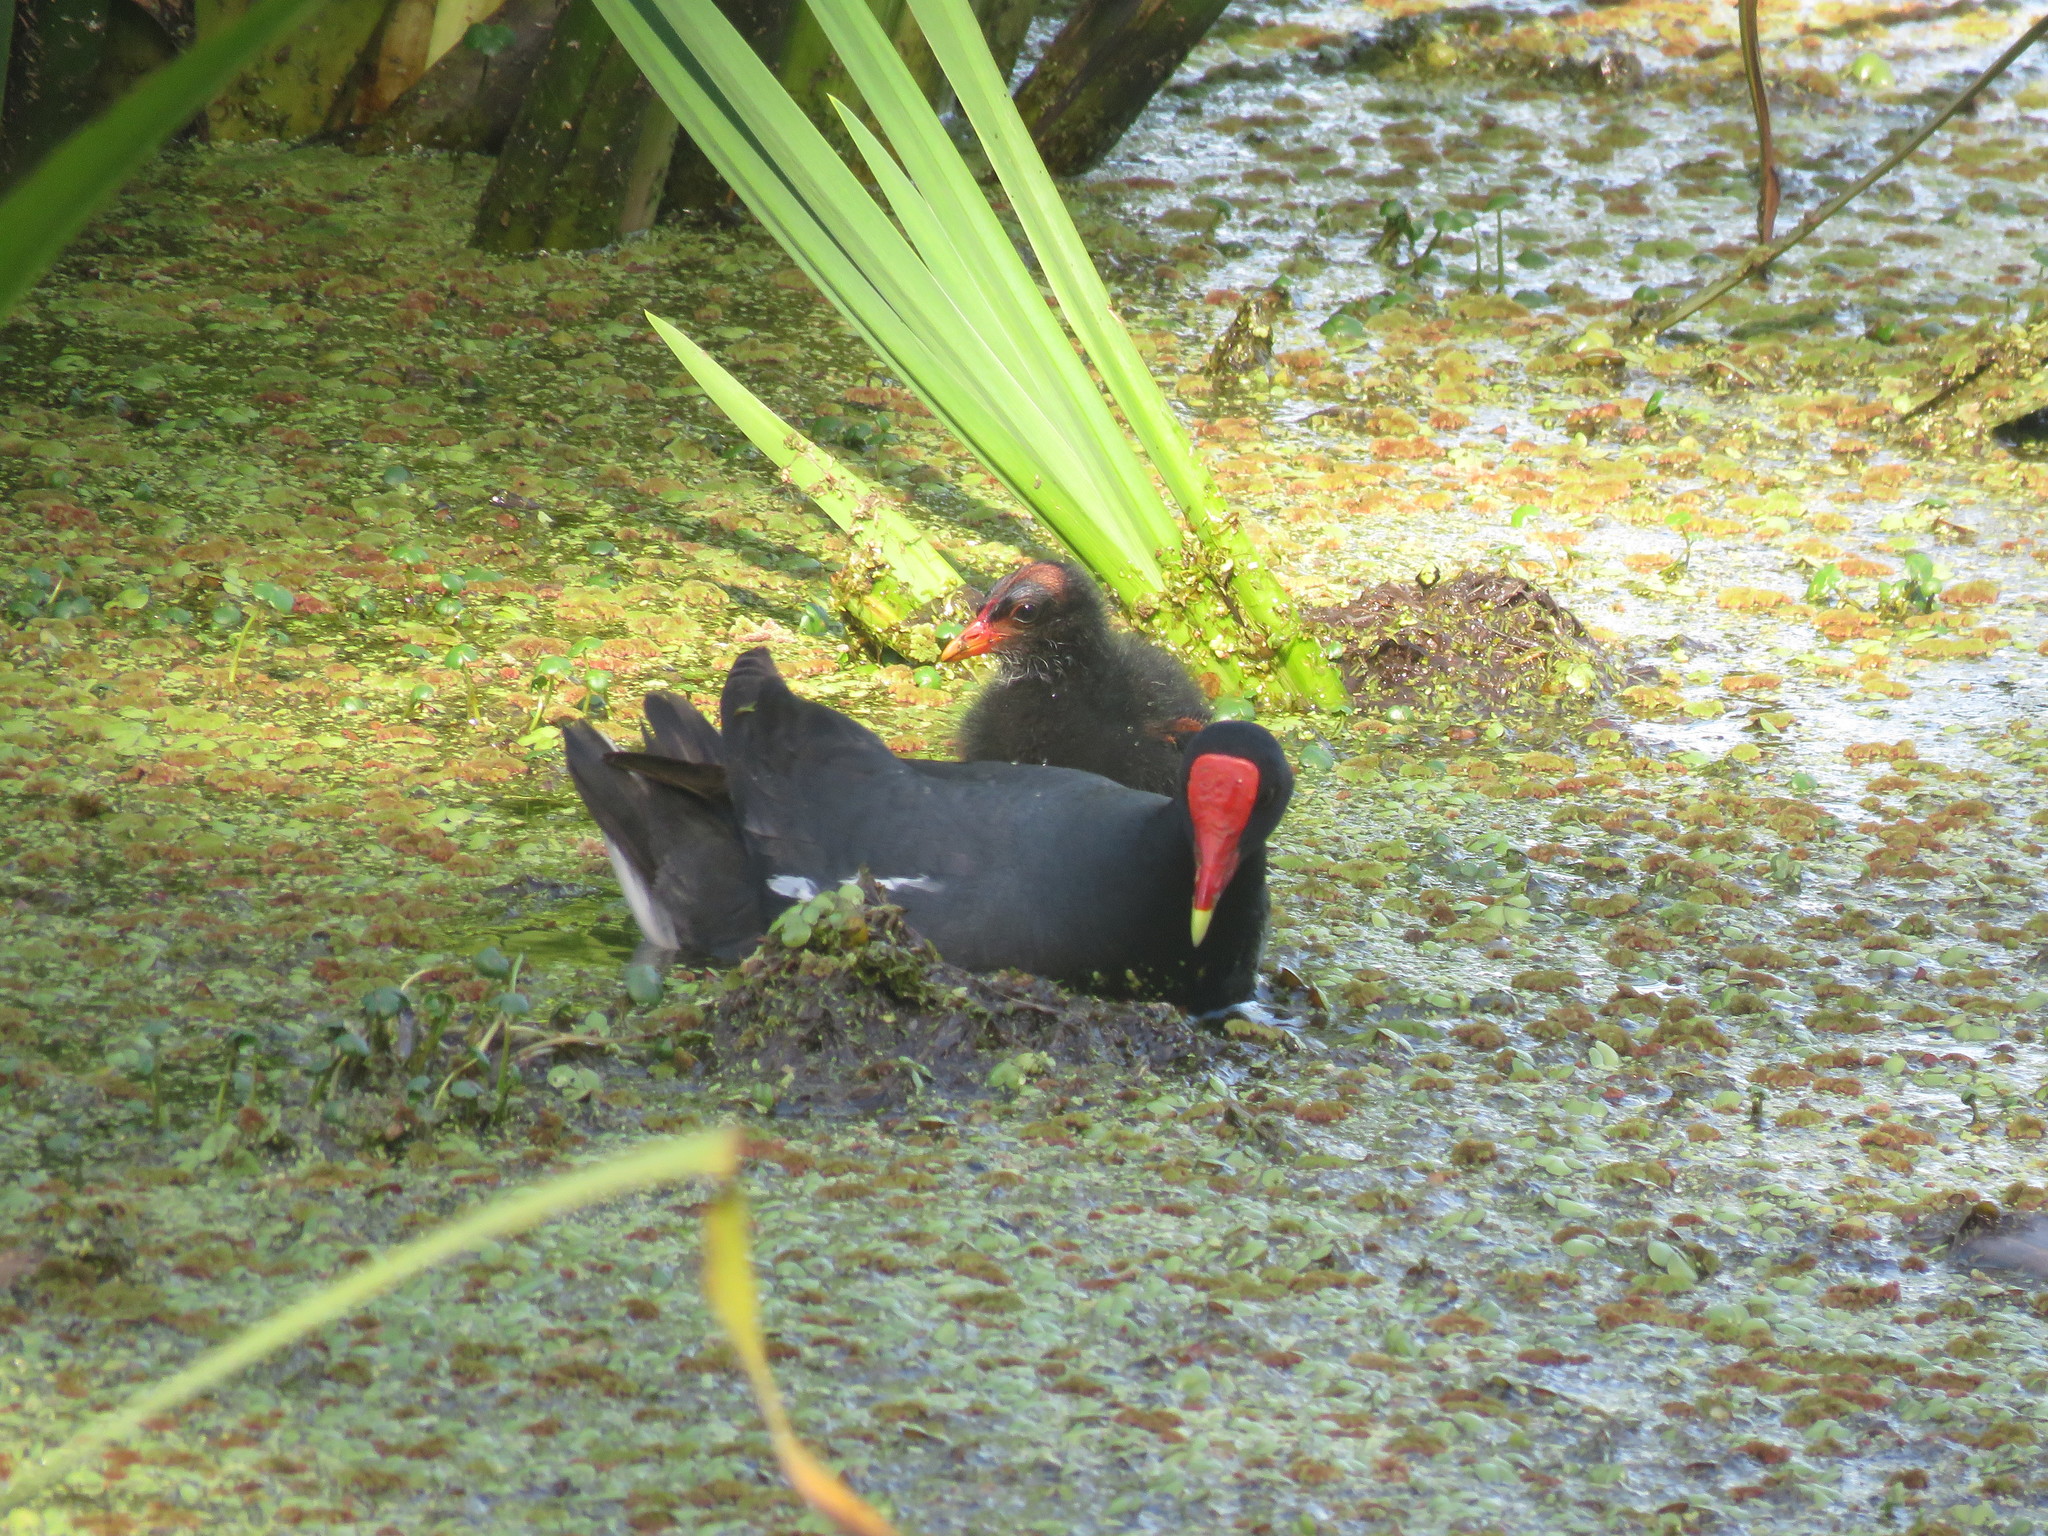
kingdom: Animalia
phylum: Chordata
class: Aves
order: Gruiformes
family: Rallidae
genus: Gallinula
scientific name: Gallinula chloropus
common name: Common moorhen
